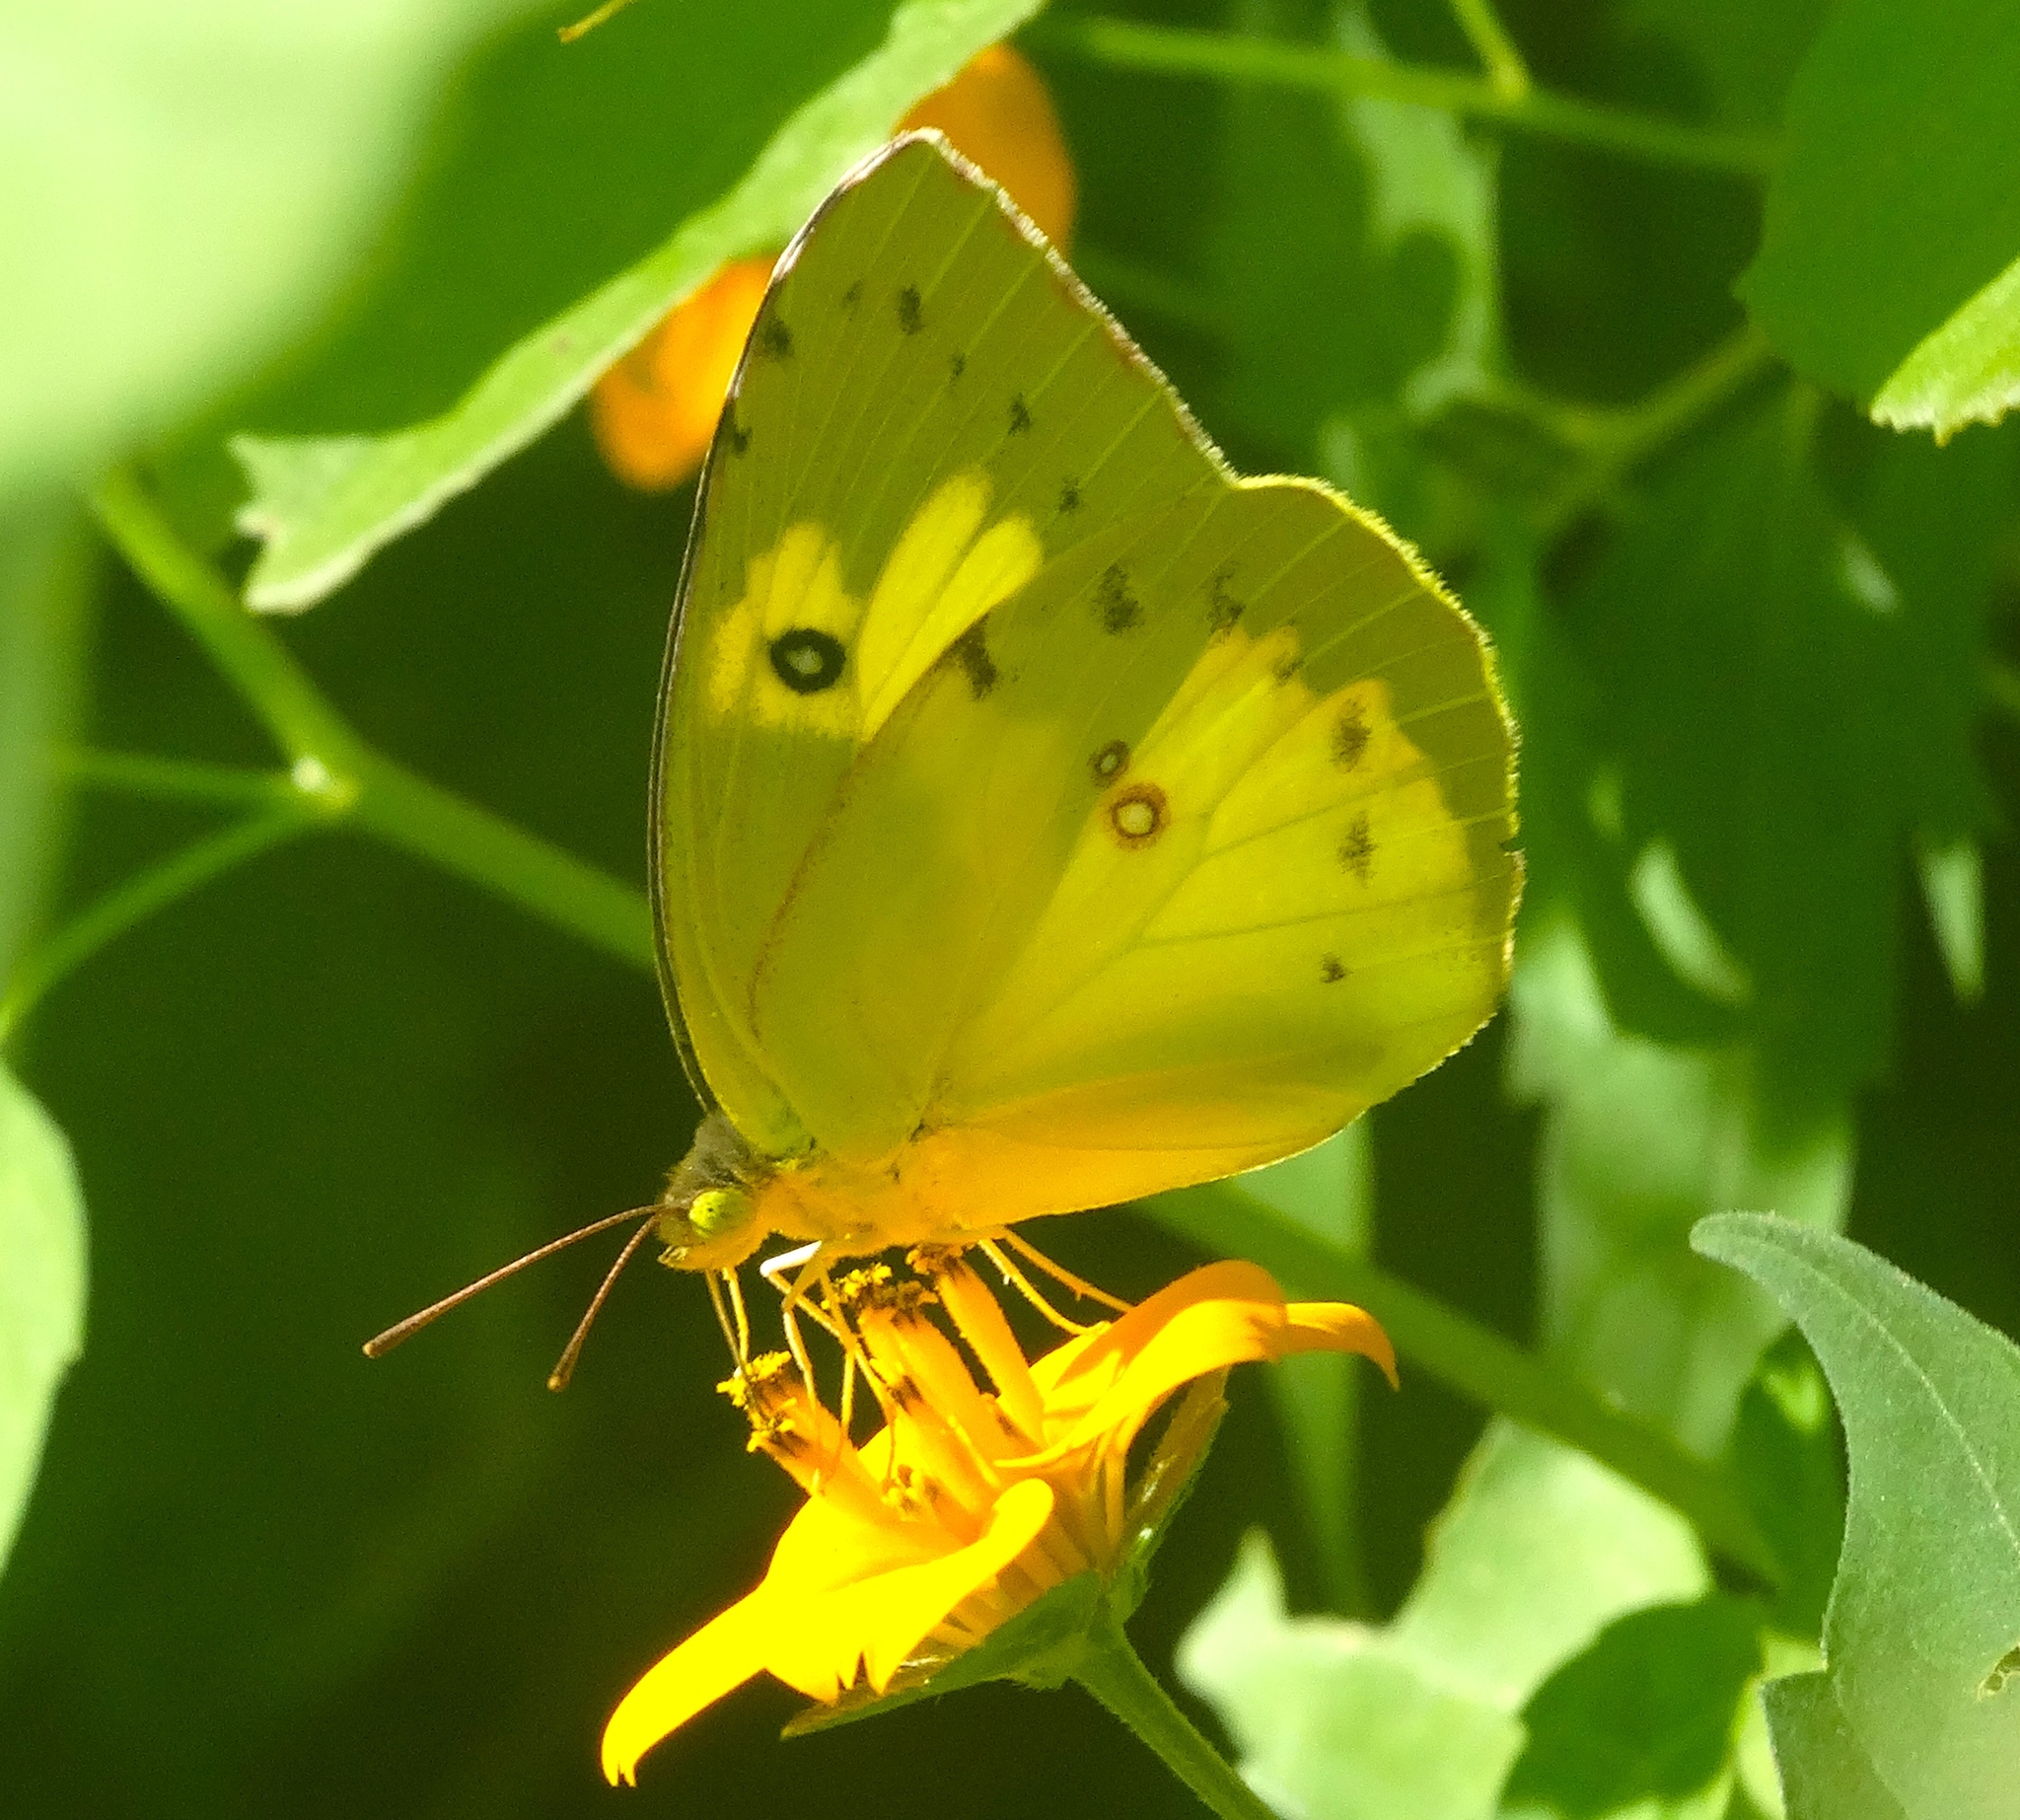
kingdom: Animalia
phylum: Arthropoda
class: Insecta
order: Lepidoptera
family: Pieridae
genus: Zerene
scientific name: Zerene cesonia
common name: Southern dogface
